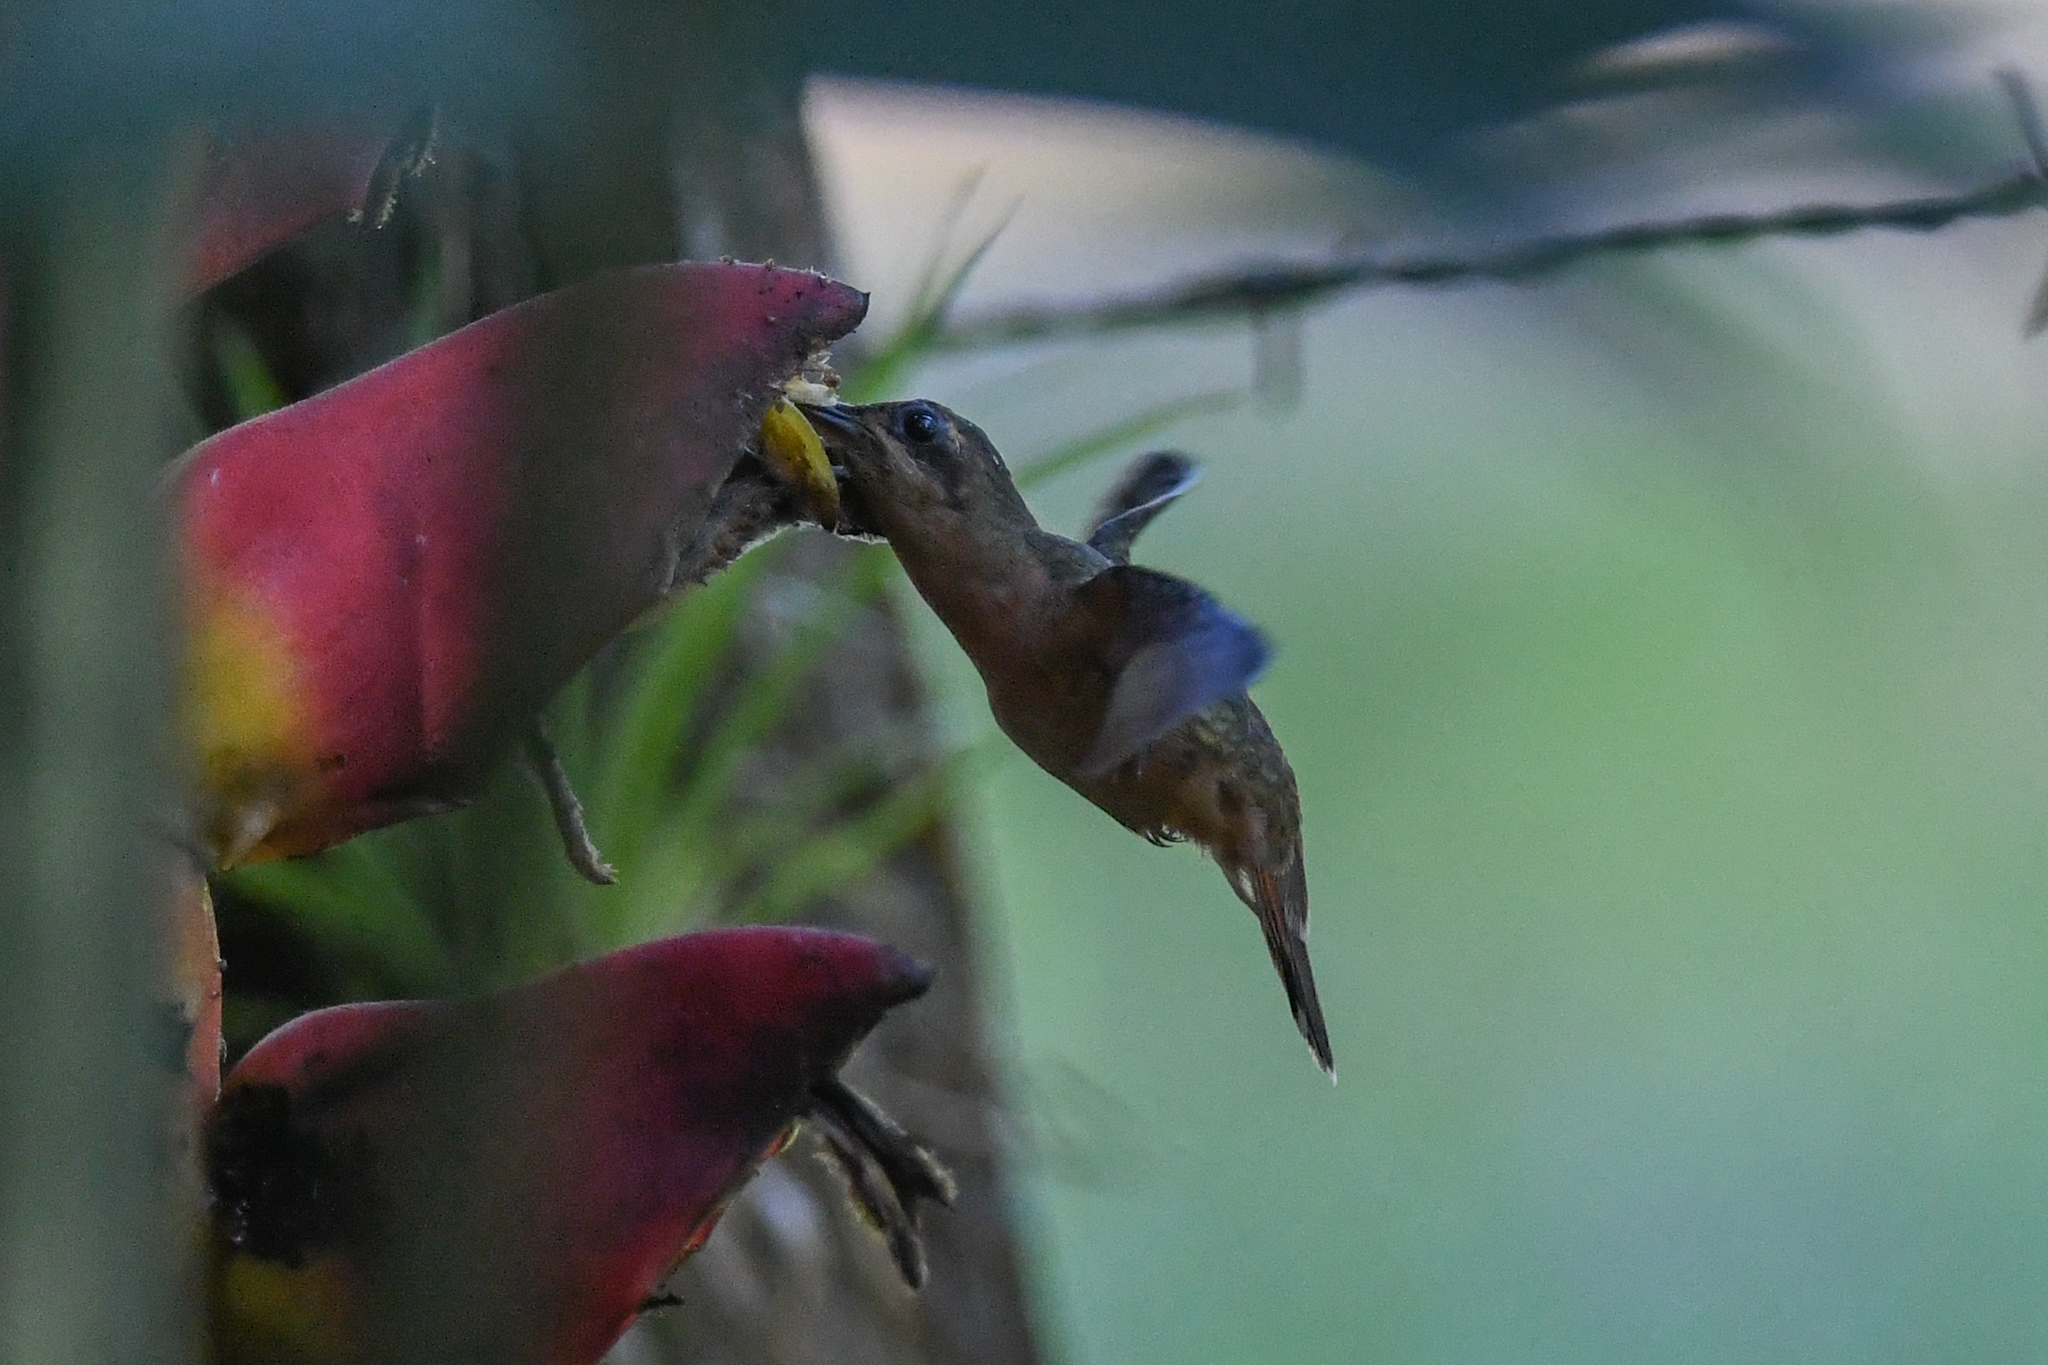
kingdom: Animalia
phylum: Chordata
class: Aves
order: Apodiformes
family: Trochilidae
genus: Glaucis
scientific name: Glaucis aeneus
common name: Bronzy hermit
